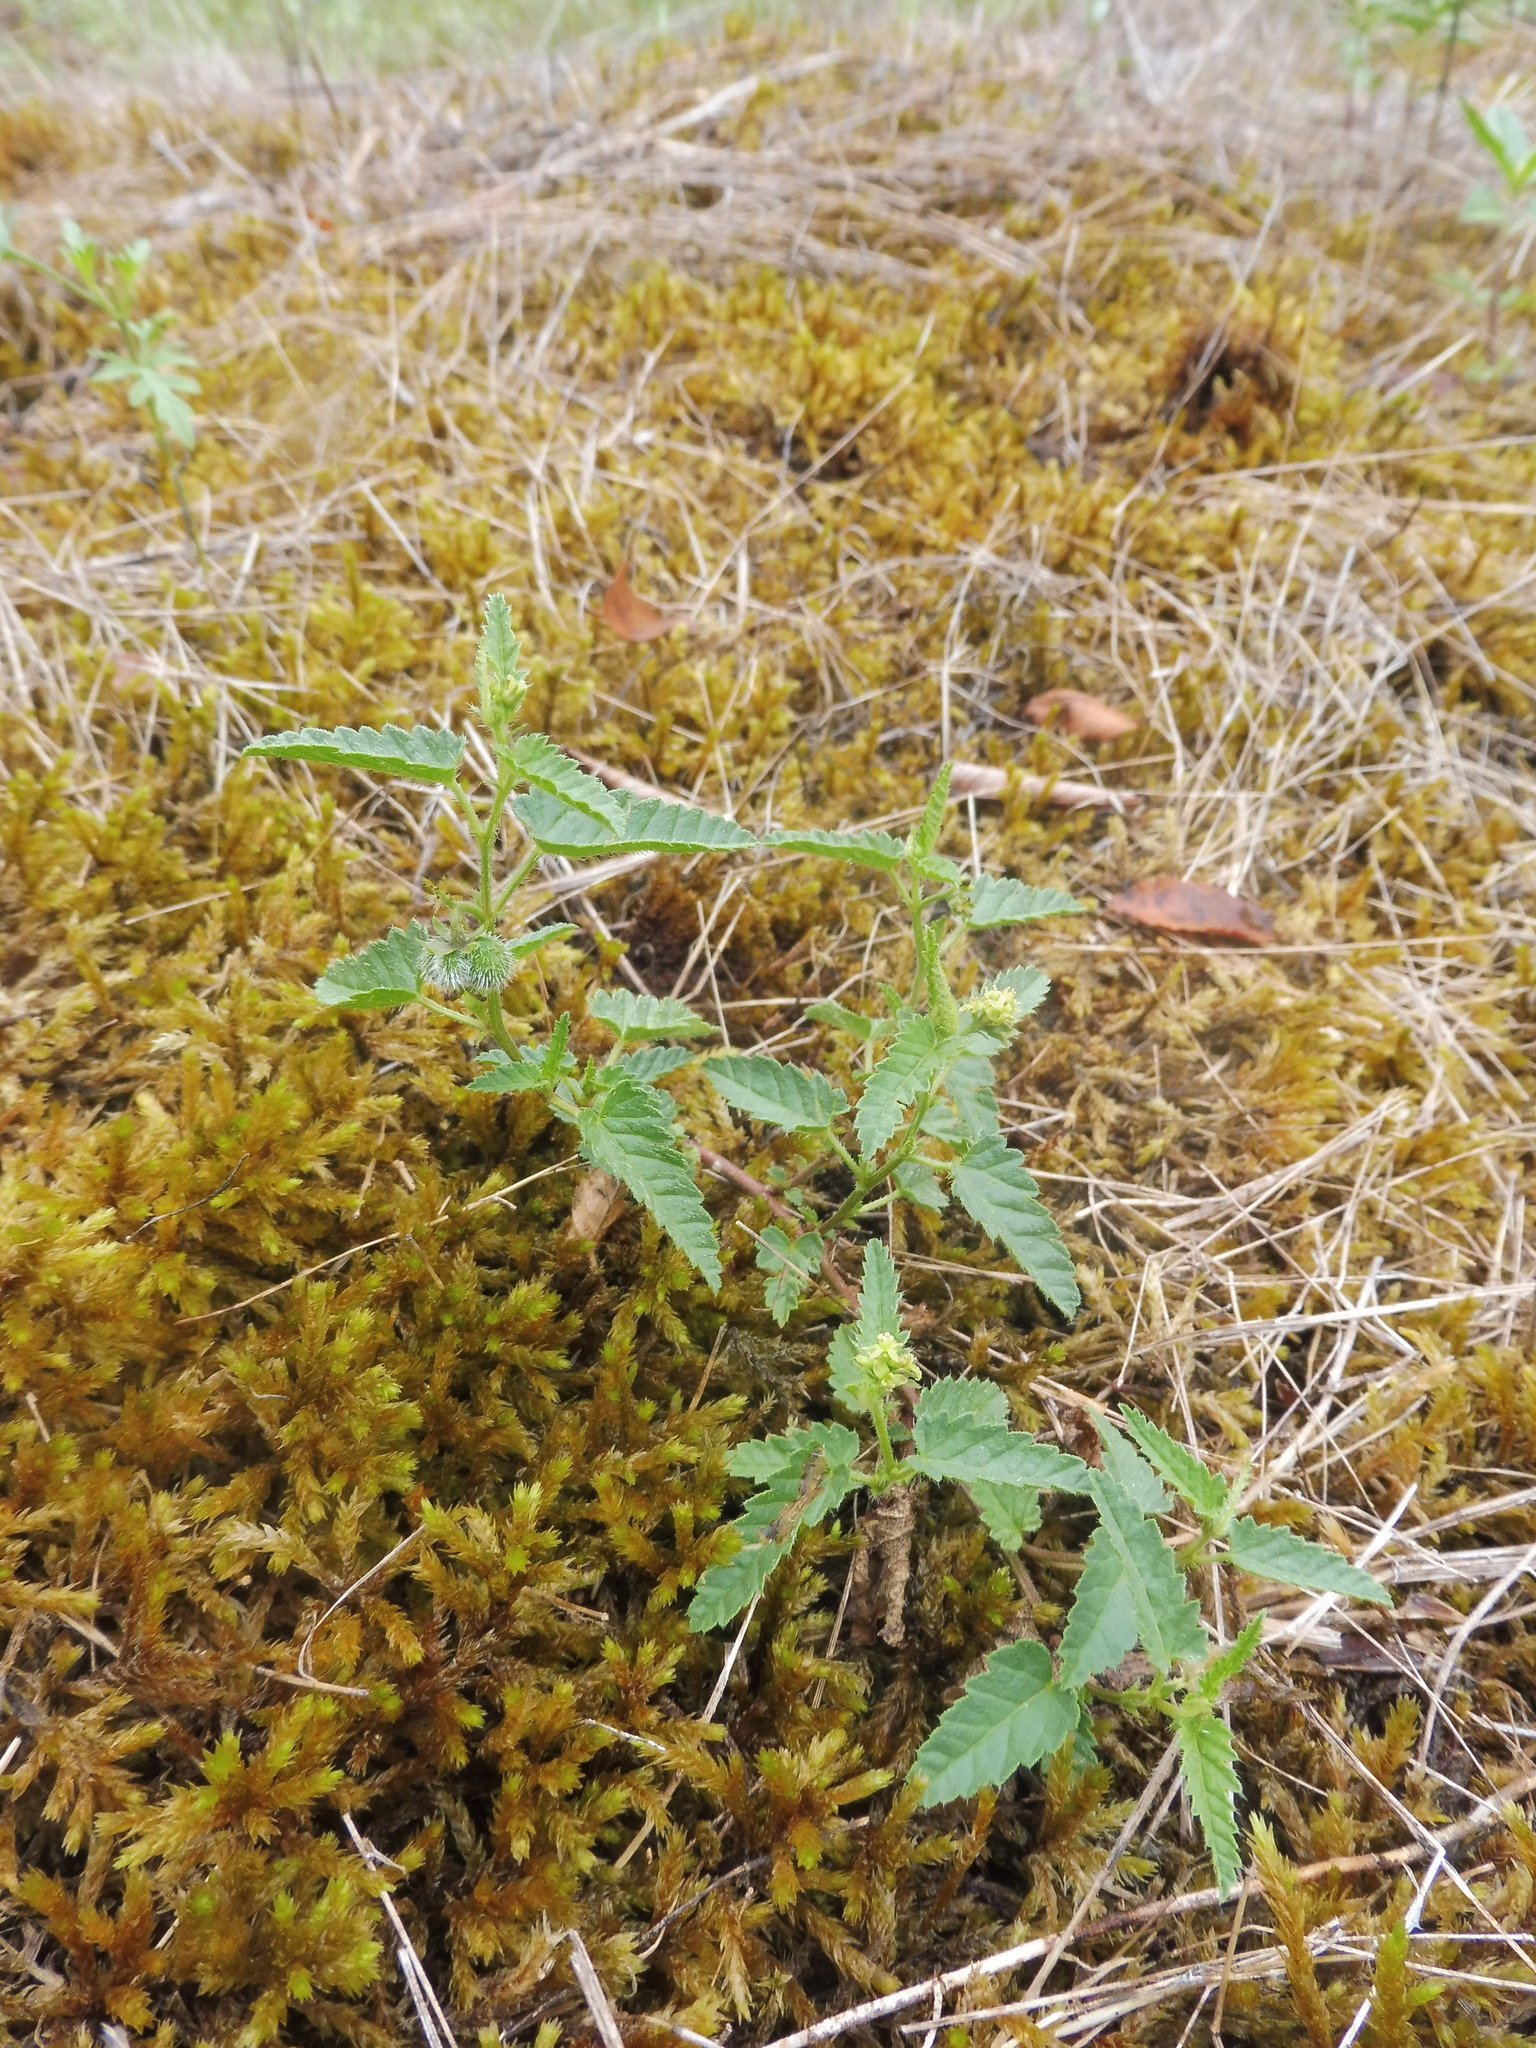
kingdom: Plantae
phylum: Tracheophyta
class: Magnoliopsida
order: Malpighiales
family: Euphorbiaceae
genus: Tragia
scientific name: Tragia betonicifolia
